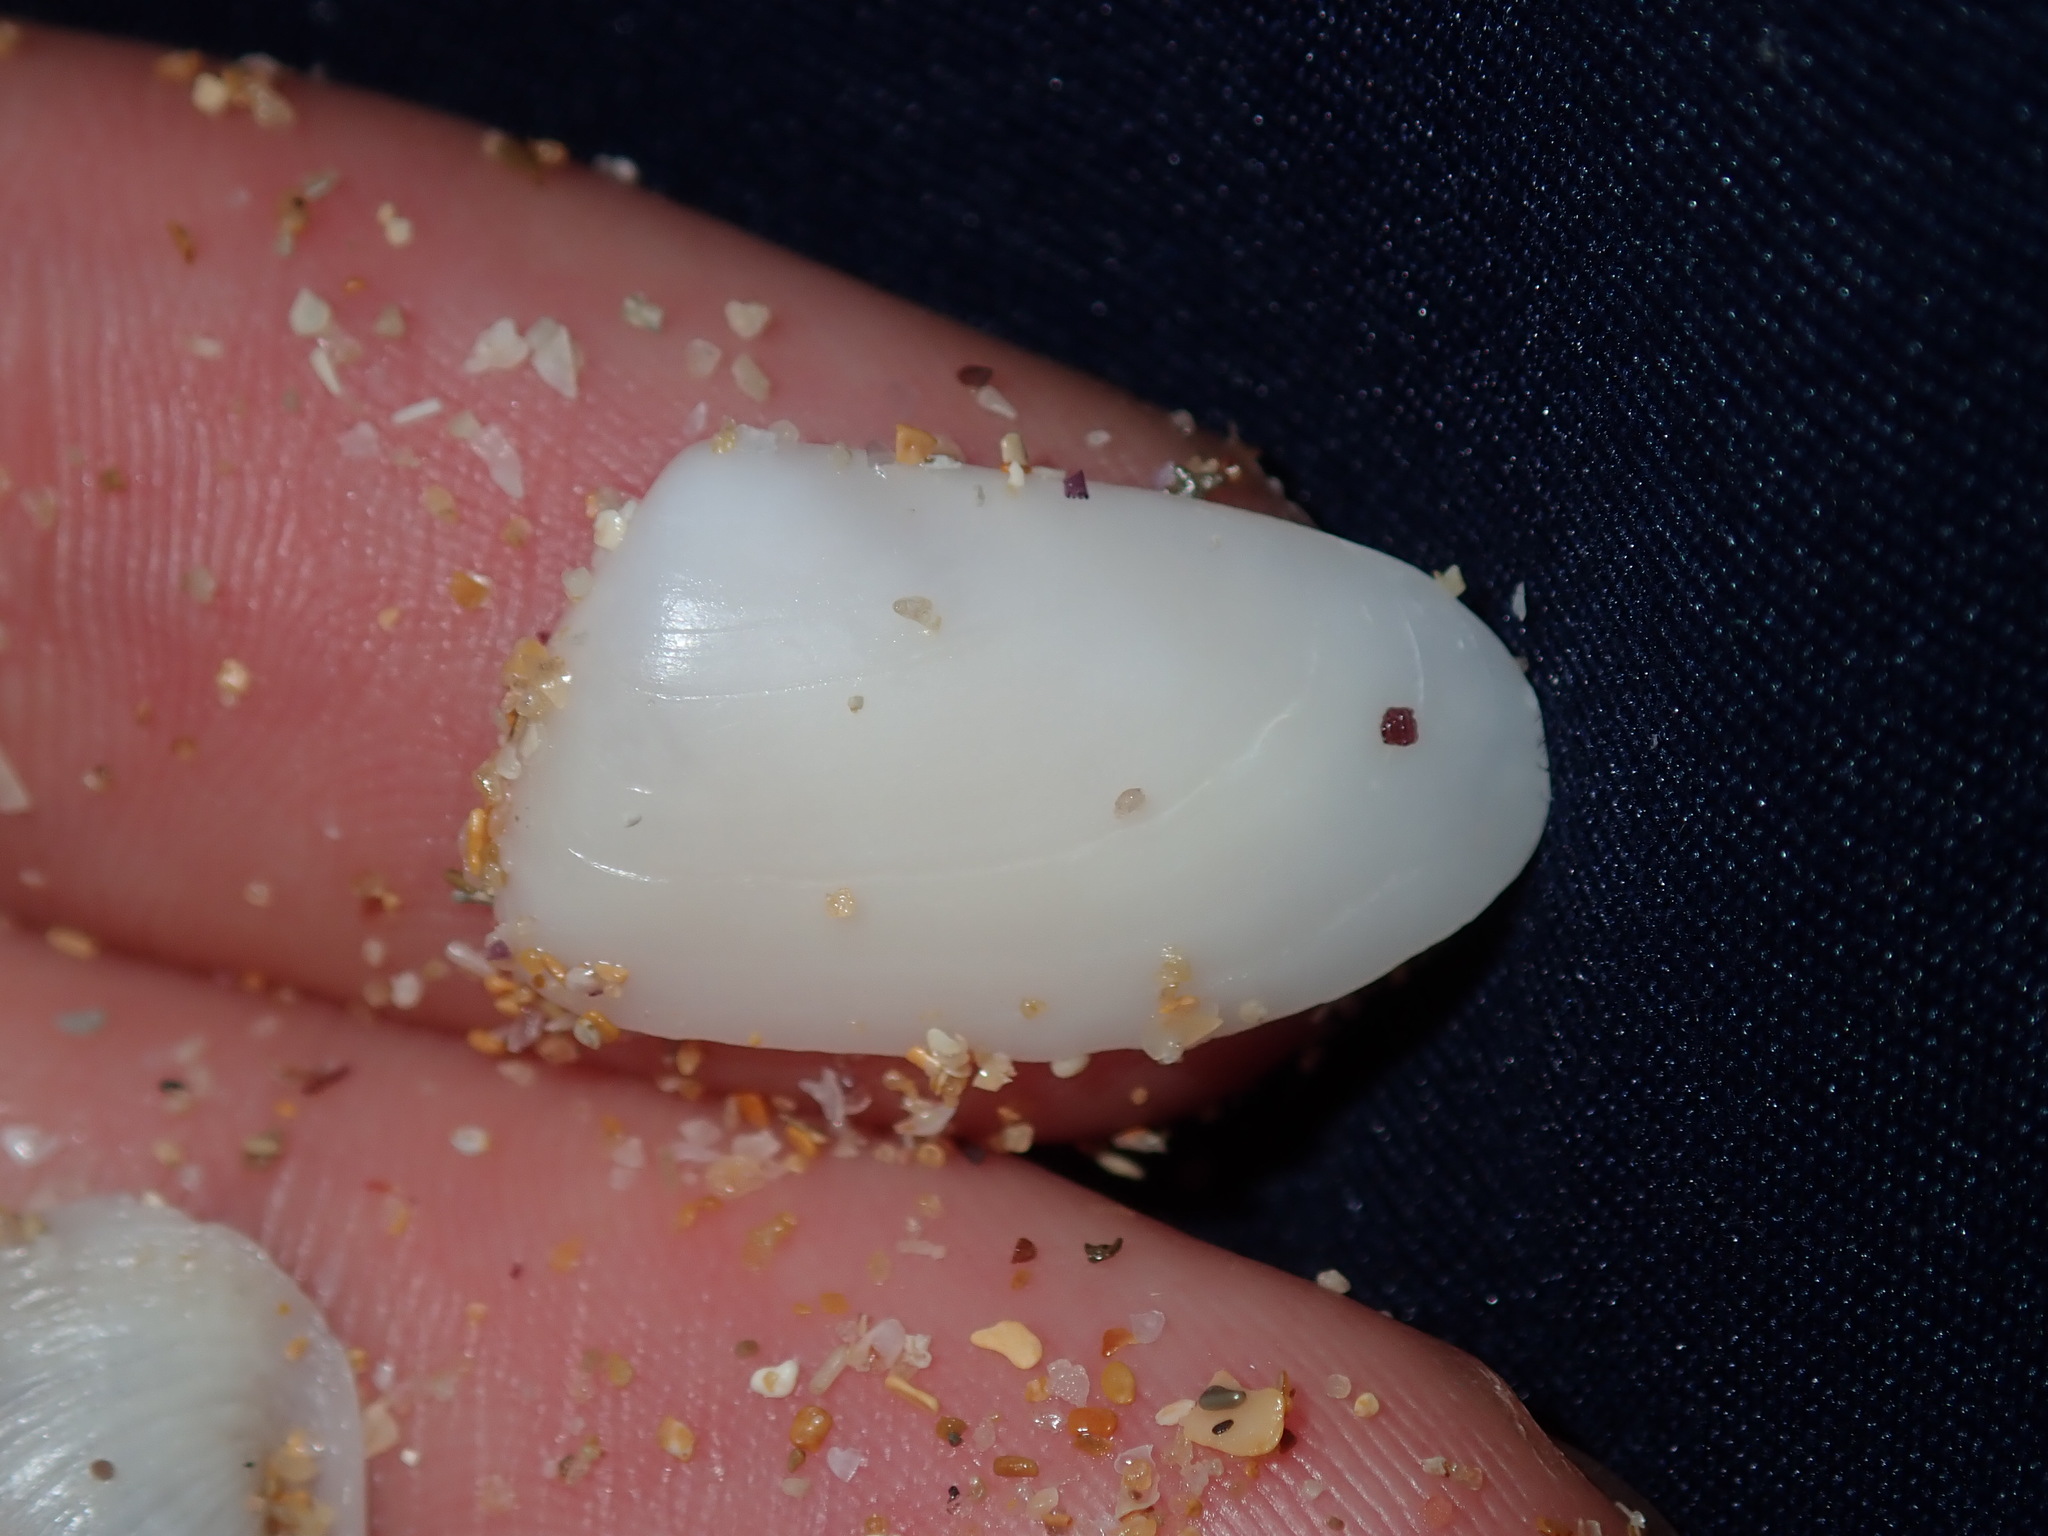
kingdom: Animalia
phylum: Mollusca
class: Bivalvia
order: Venerida
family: Mesodesmatidae
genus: Paphies
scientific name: Paphies angusta
